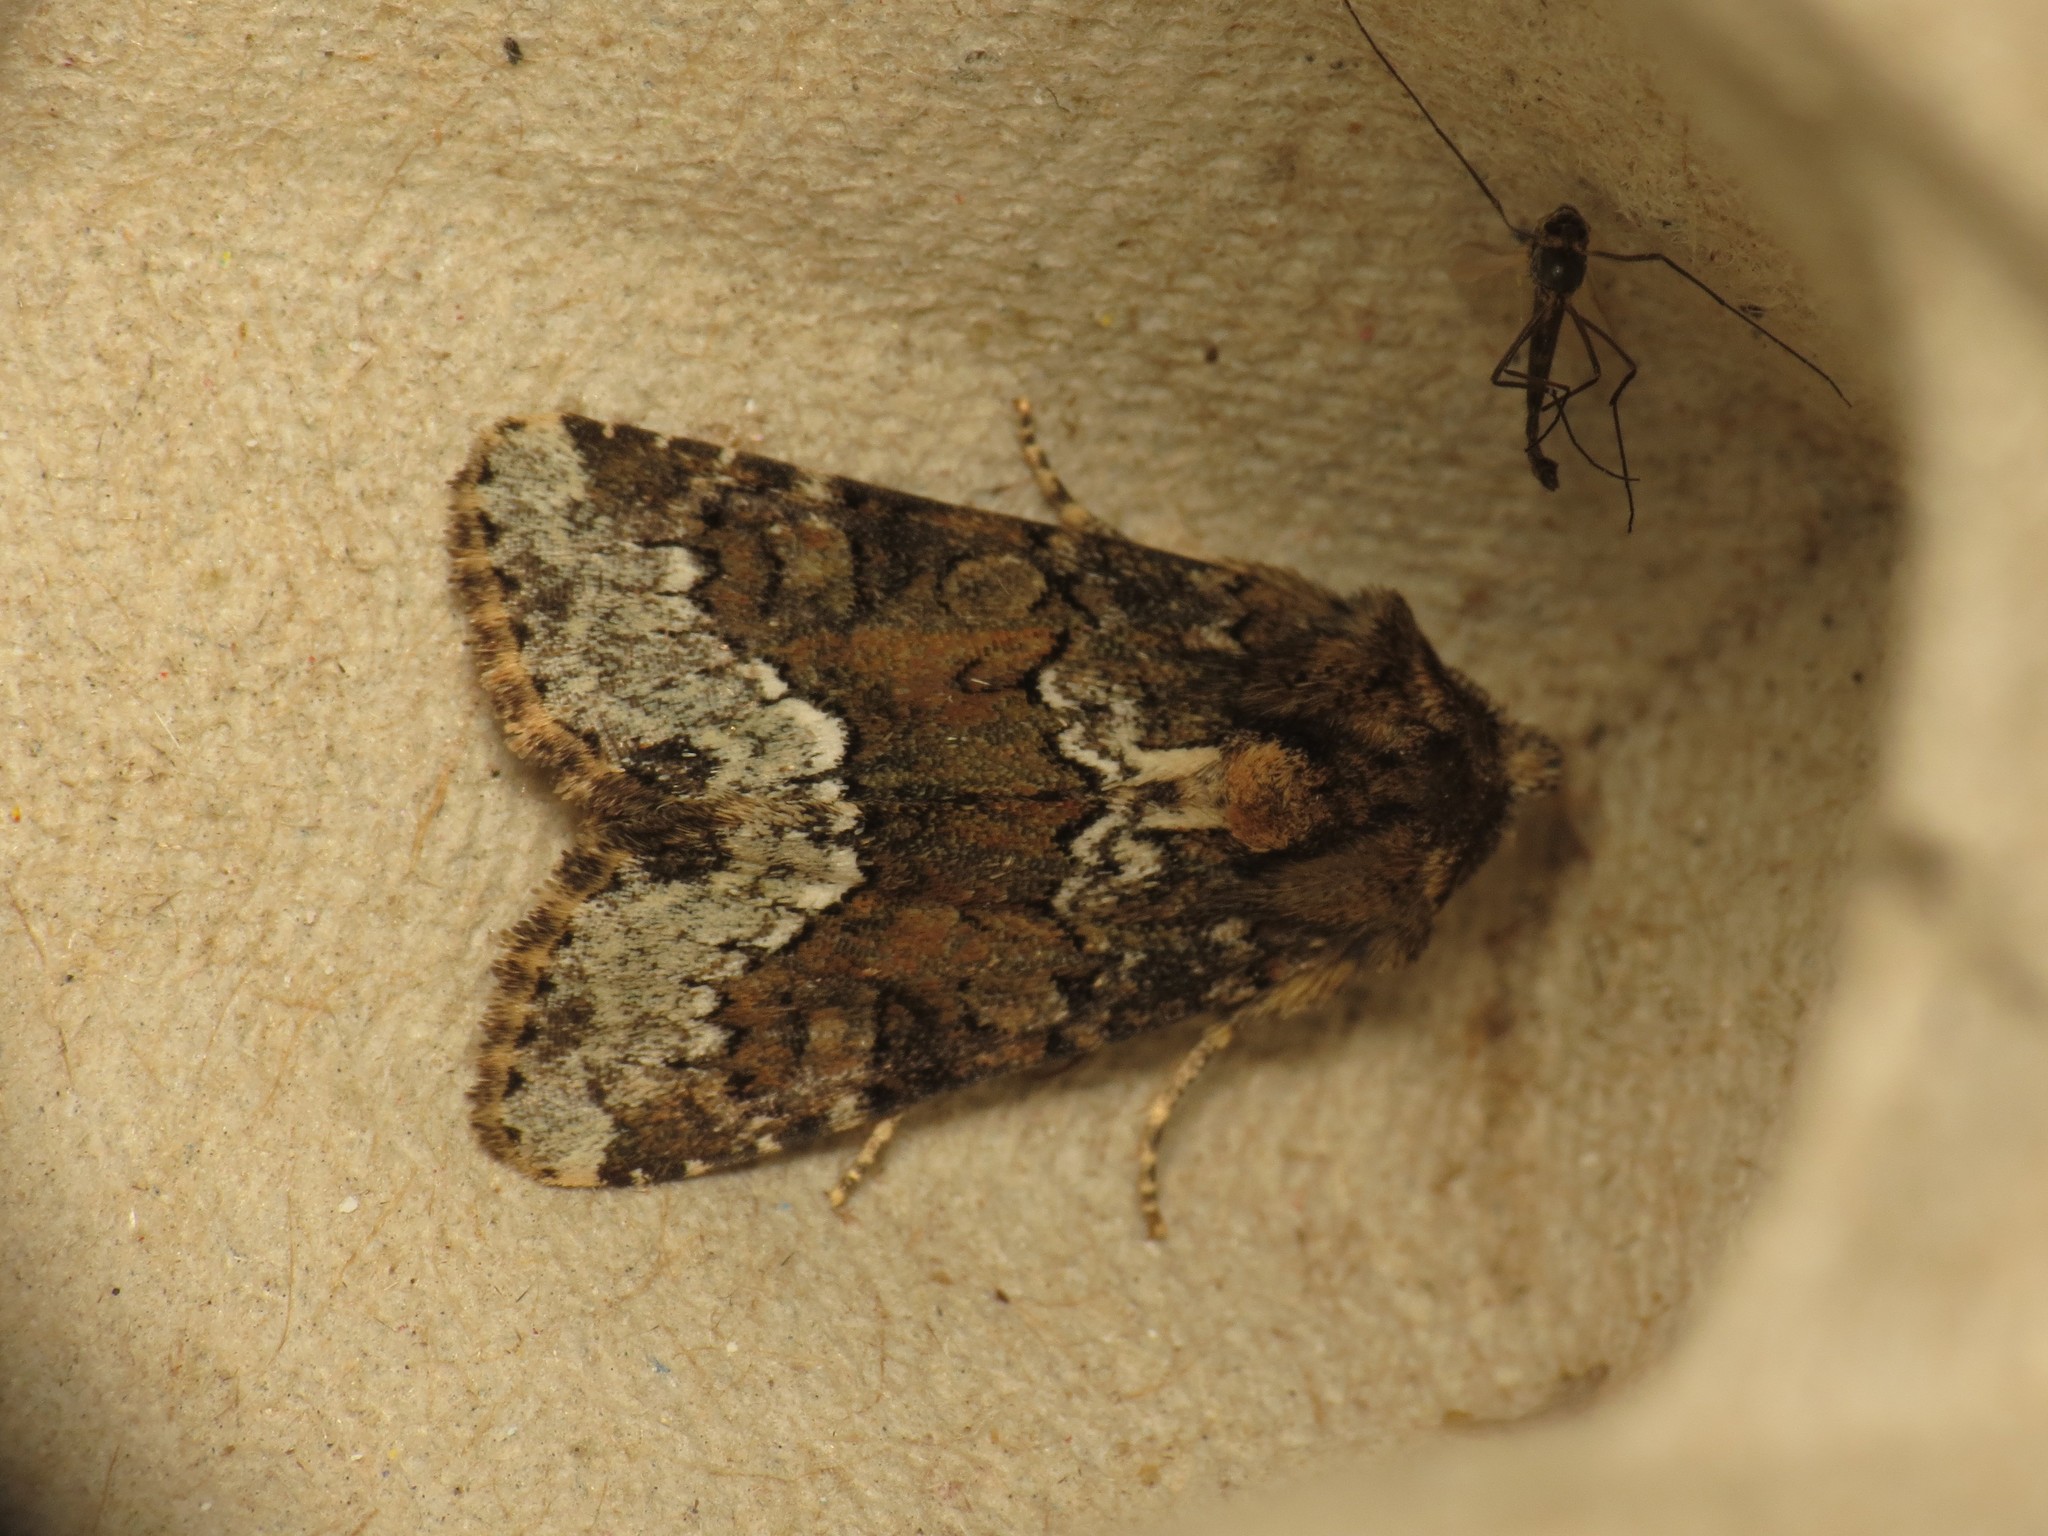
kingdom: Animalia
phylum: Arthropoda
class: Insecta
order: Lepidoptera
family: Noctuidae
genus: Oligia
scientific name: Oligia strigilis
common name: Marbled minor
